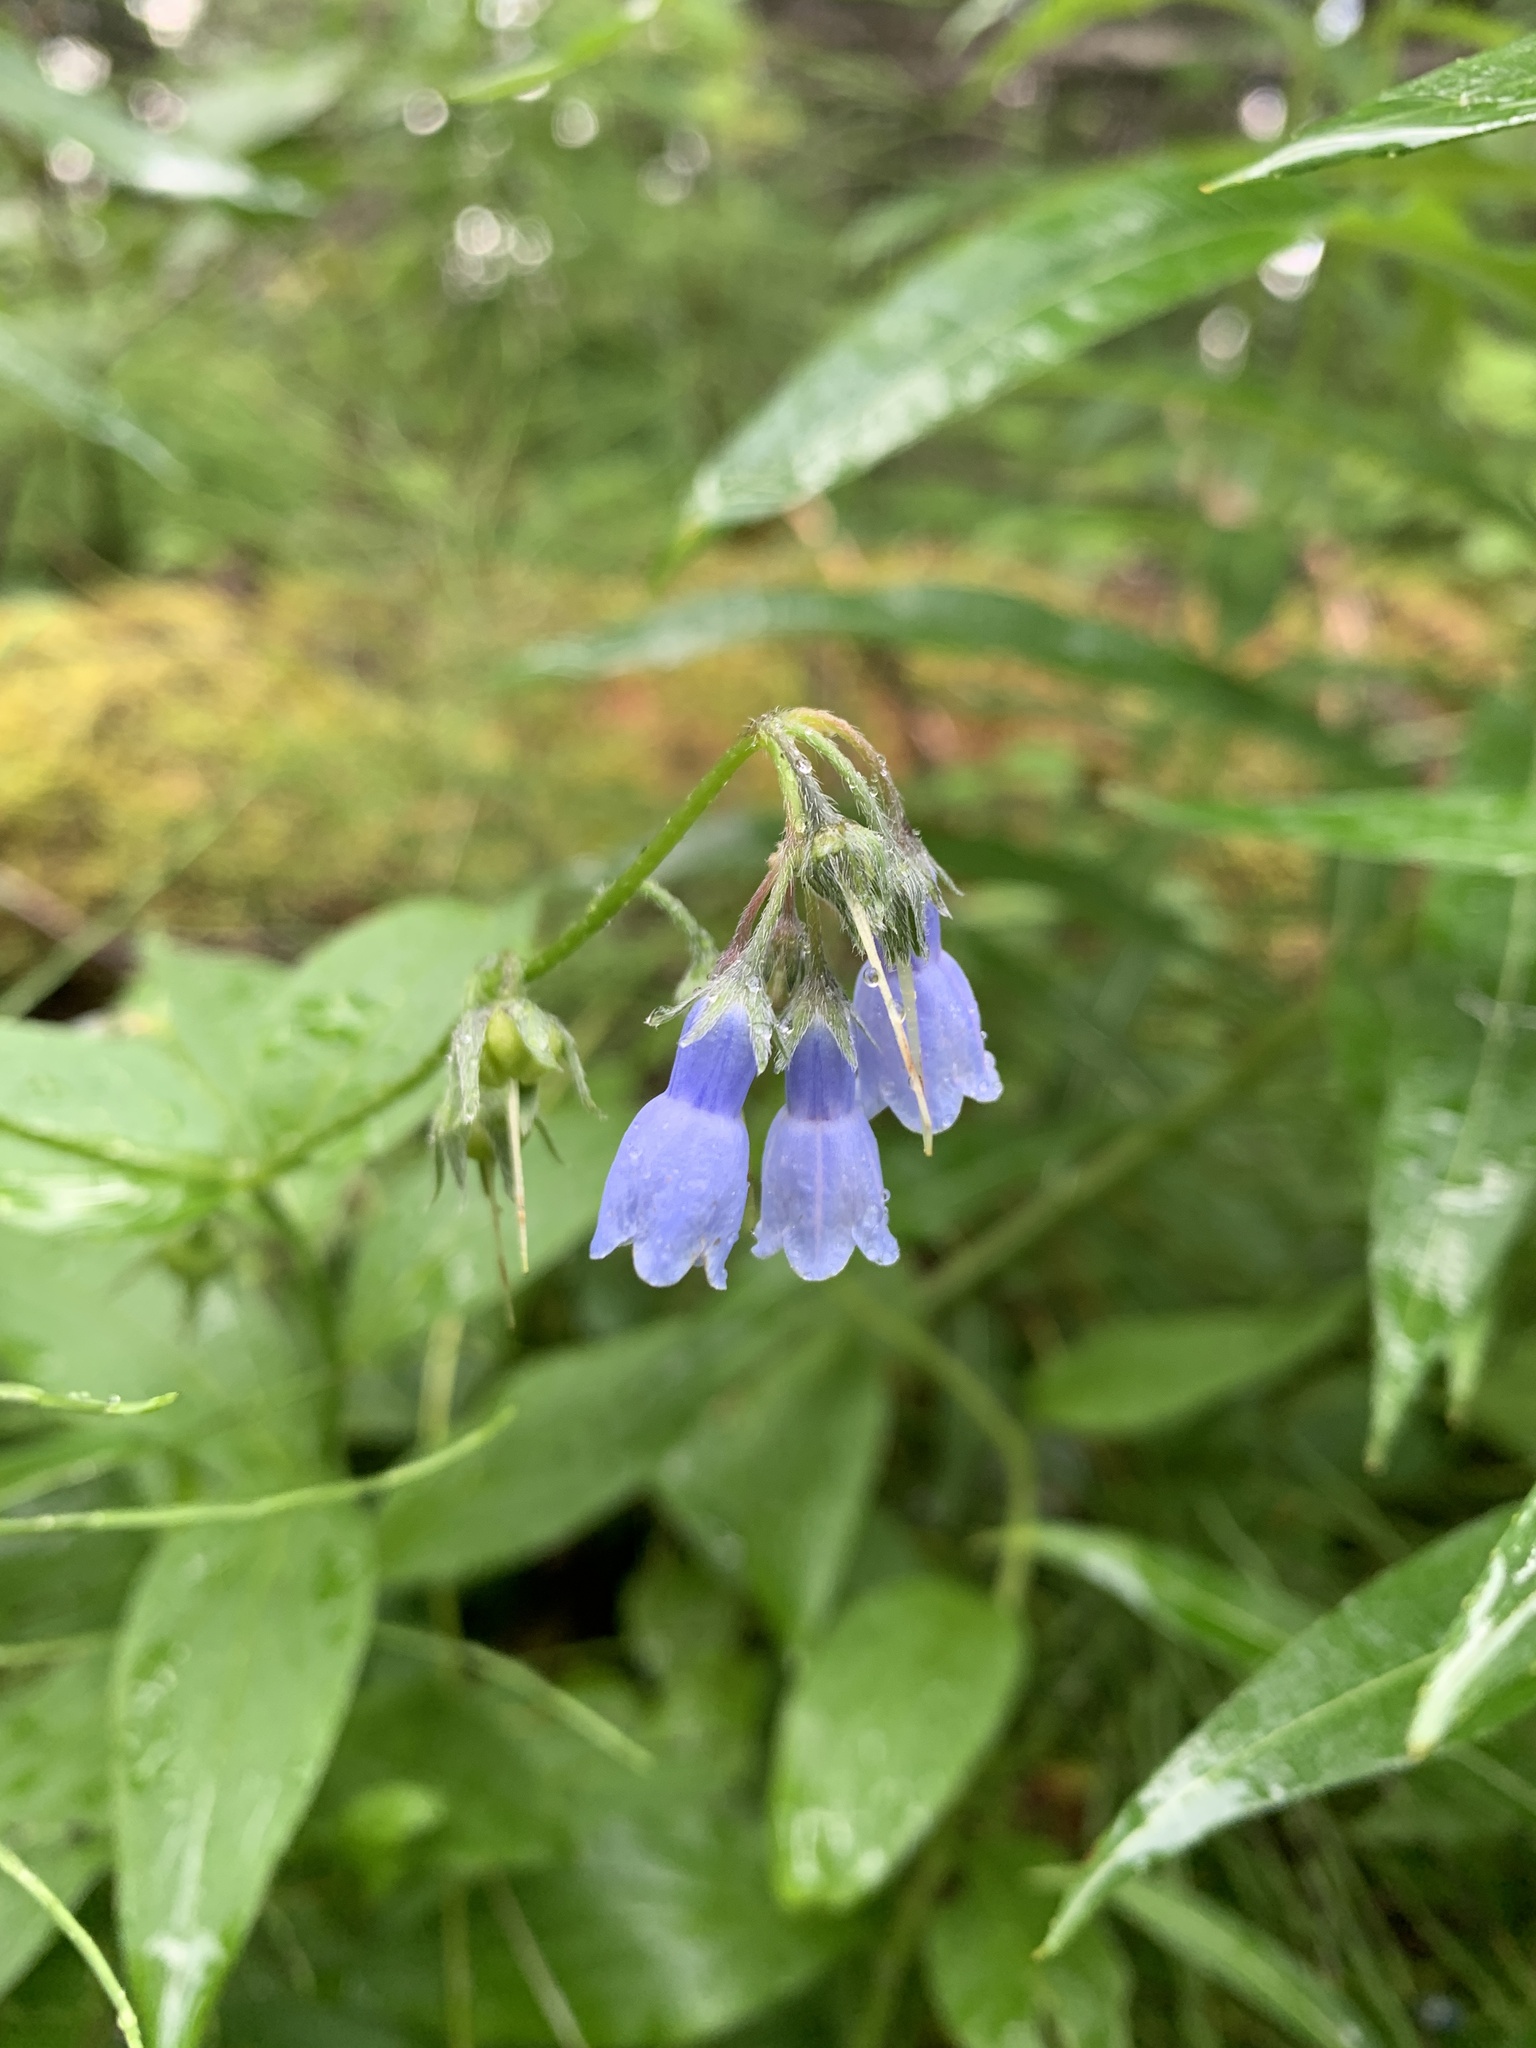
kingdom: Plantae
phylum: Tracheophyta
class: Magnoliopsida
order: Boraginales
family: Boraginaceae
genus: Mertensia
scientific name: Mertensia paniculata
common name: Panicled bluebells
